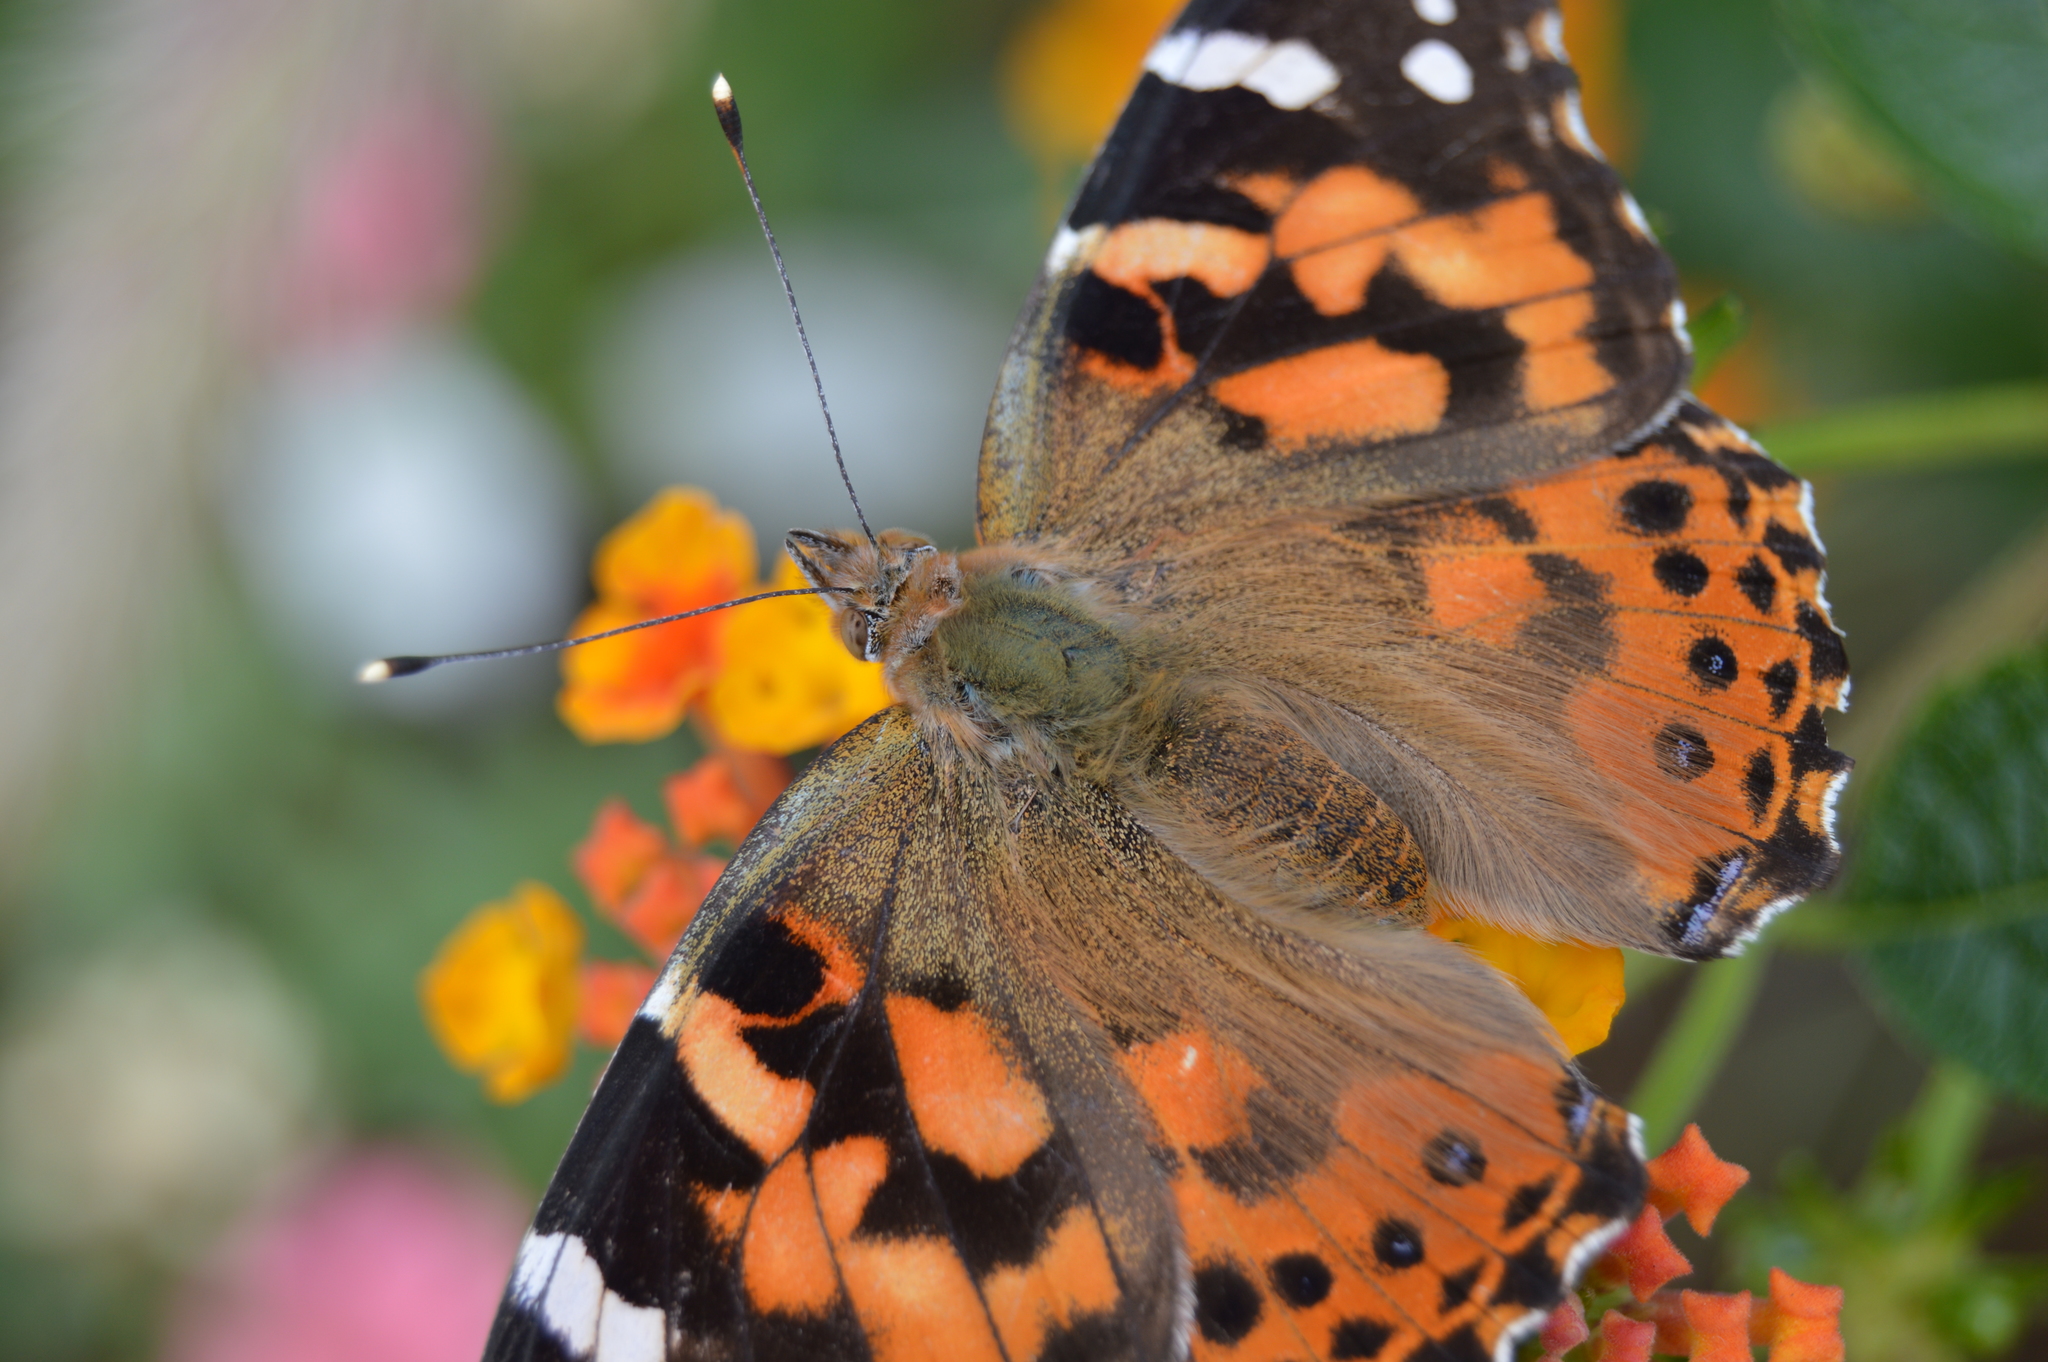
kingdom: Animalia
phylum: Arthropoda
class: Insecta
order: Lepidoptera
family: Nymphalidae
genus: Vanessa
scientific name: Vanessa cardui
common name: Painted lady
